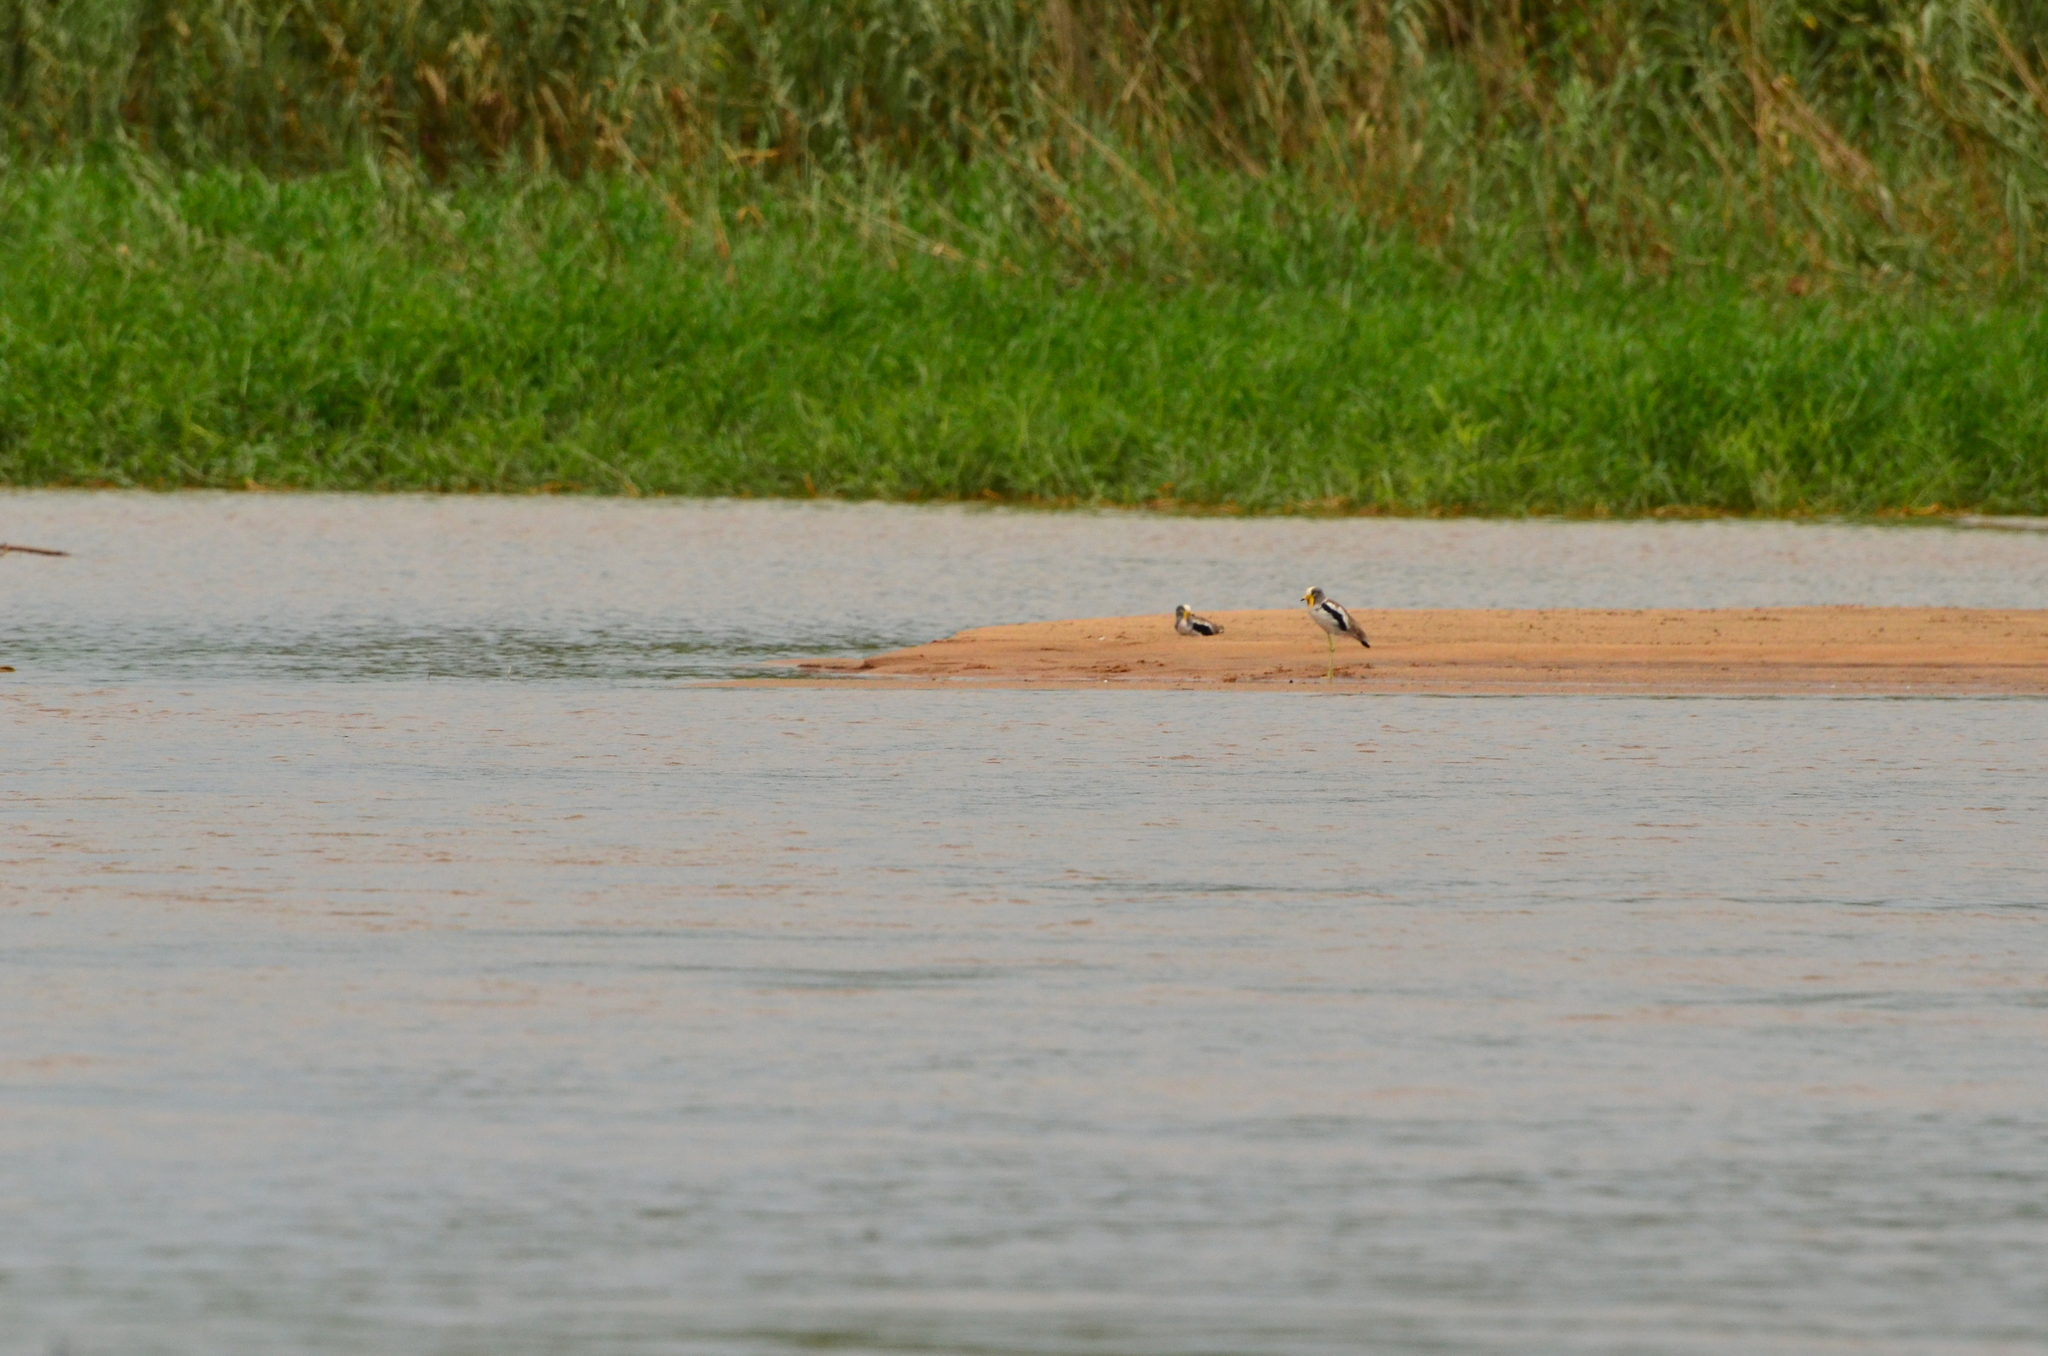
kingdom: Animalia
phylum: Chordata
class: Aves
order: Charadriiformes
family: Charadriidae
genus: Vanellus
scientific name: Vanellus albiceps
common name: White-crowned lapwing
